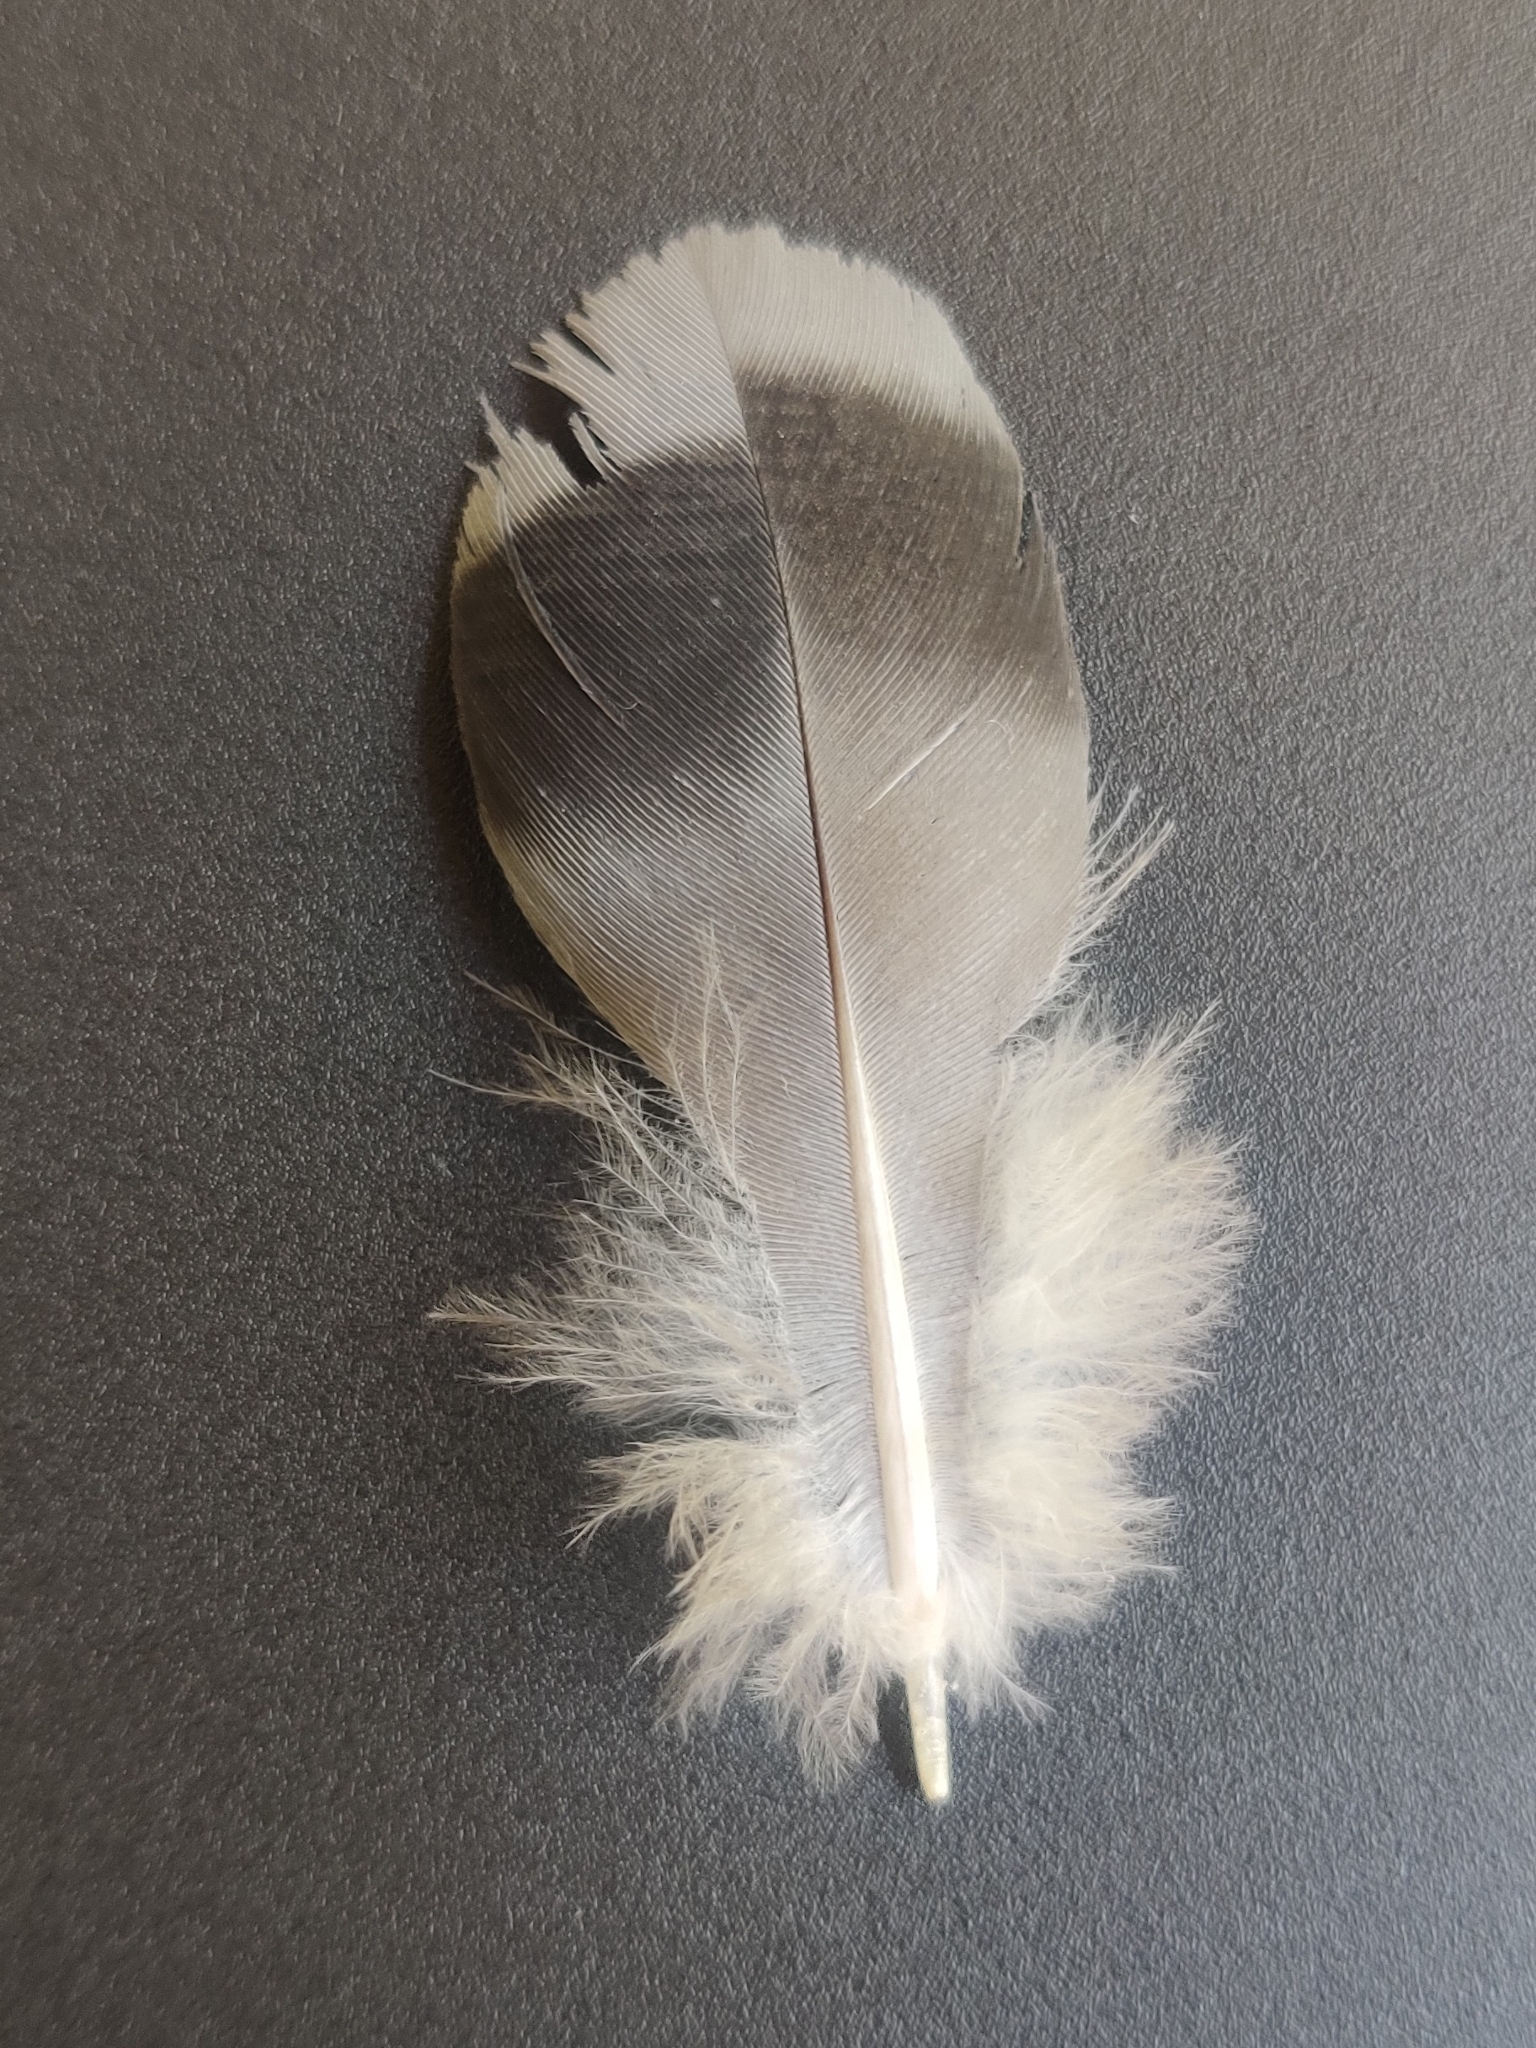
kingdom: Animalia
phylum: Chordata
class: Aves
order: Columbiformes
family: Columbidae
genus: Columba
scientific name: Columba livia
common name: Rock pigeon
